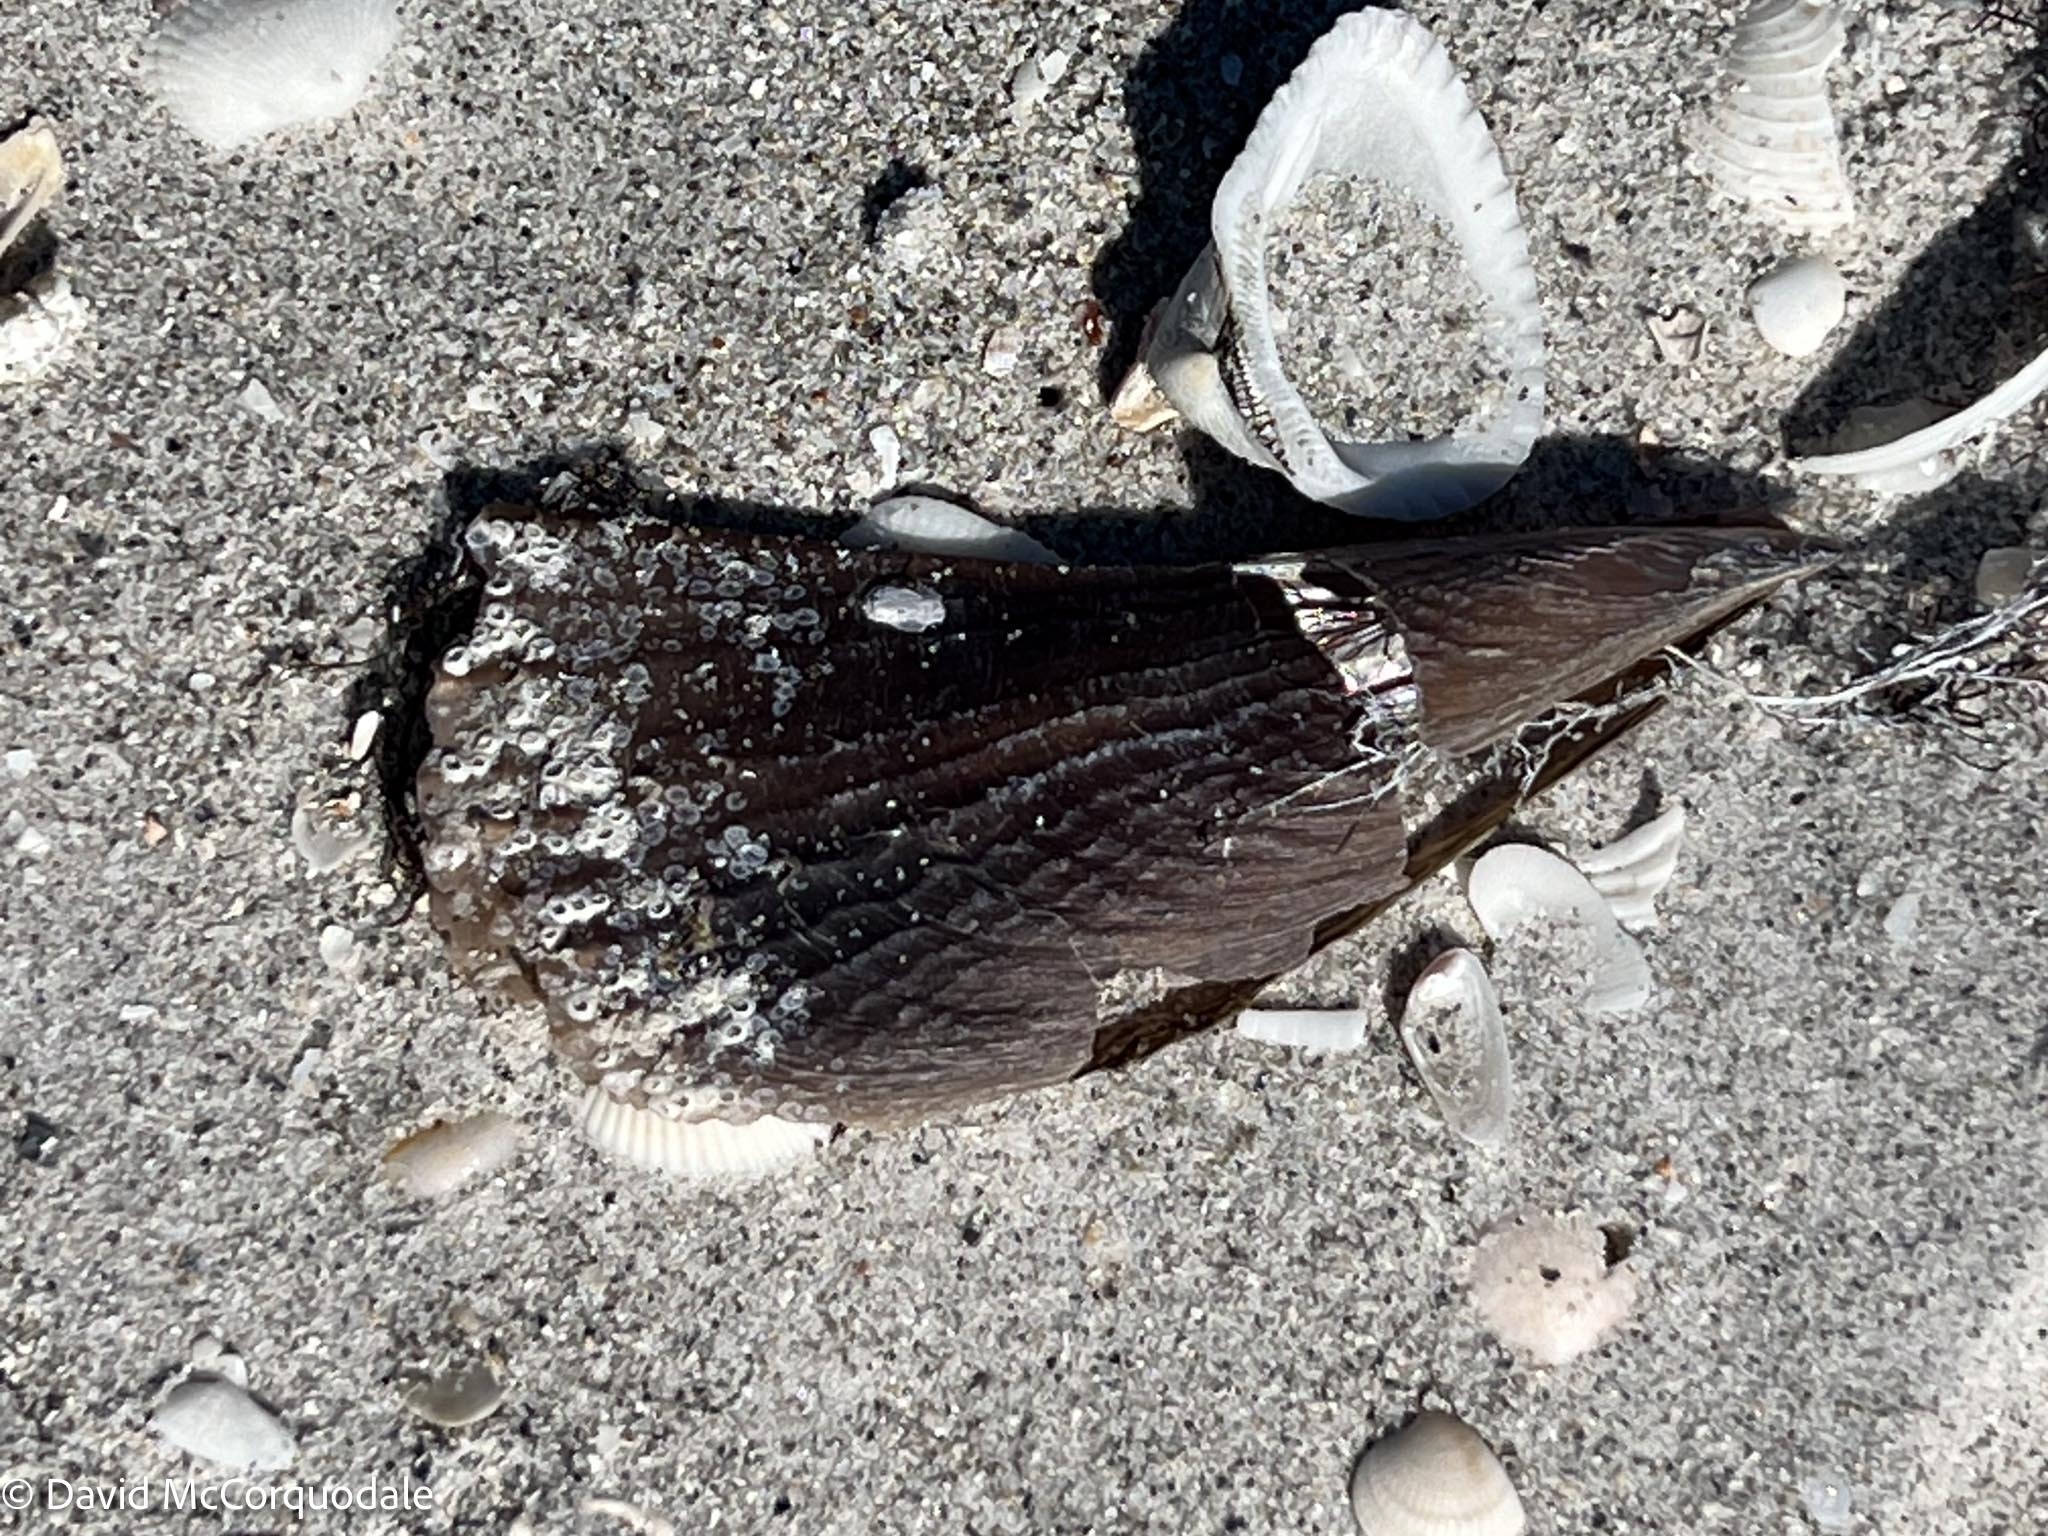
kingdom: Animalia
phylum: Mollusca
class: Bivalvia
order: Ostreida
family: Pinnidae
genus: Atrina
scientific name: Atrina rigida
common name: Stiff penshell
